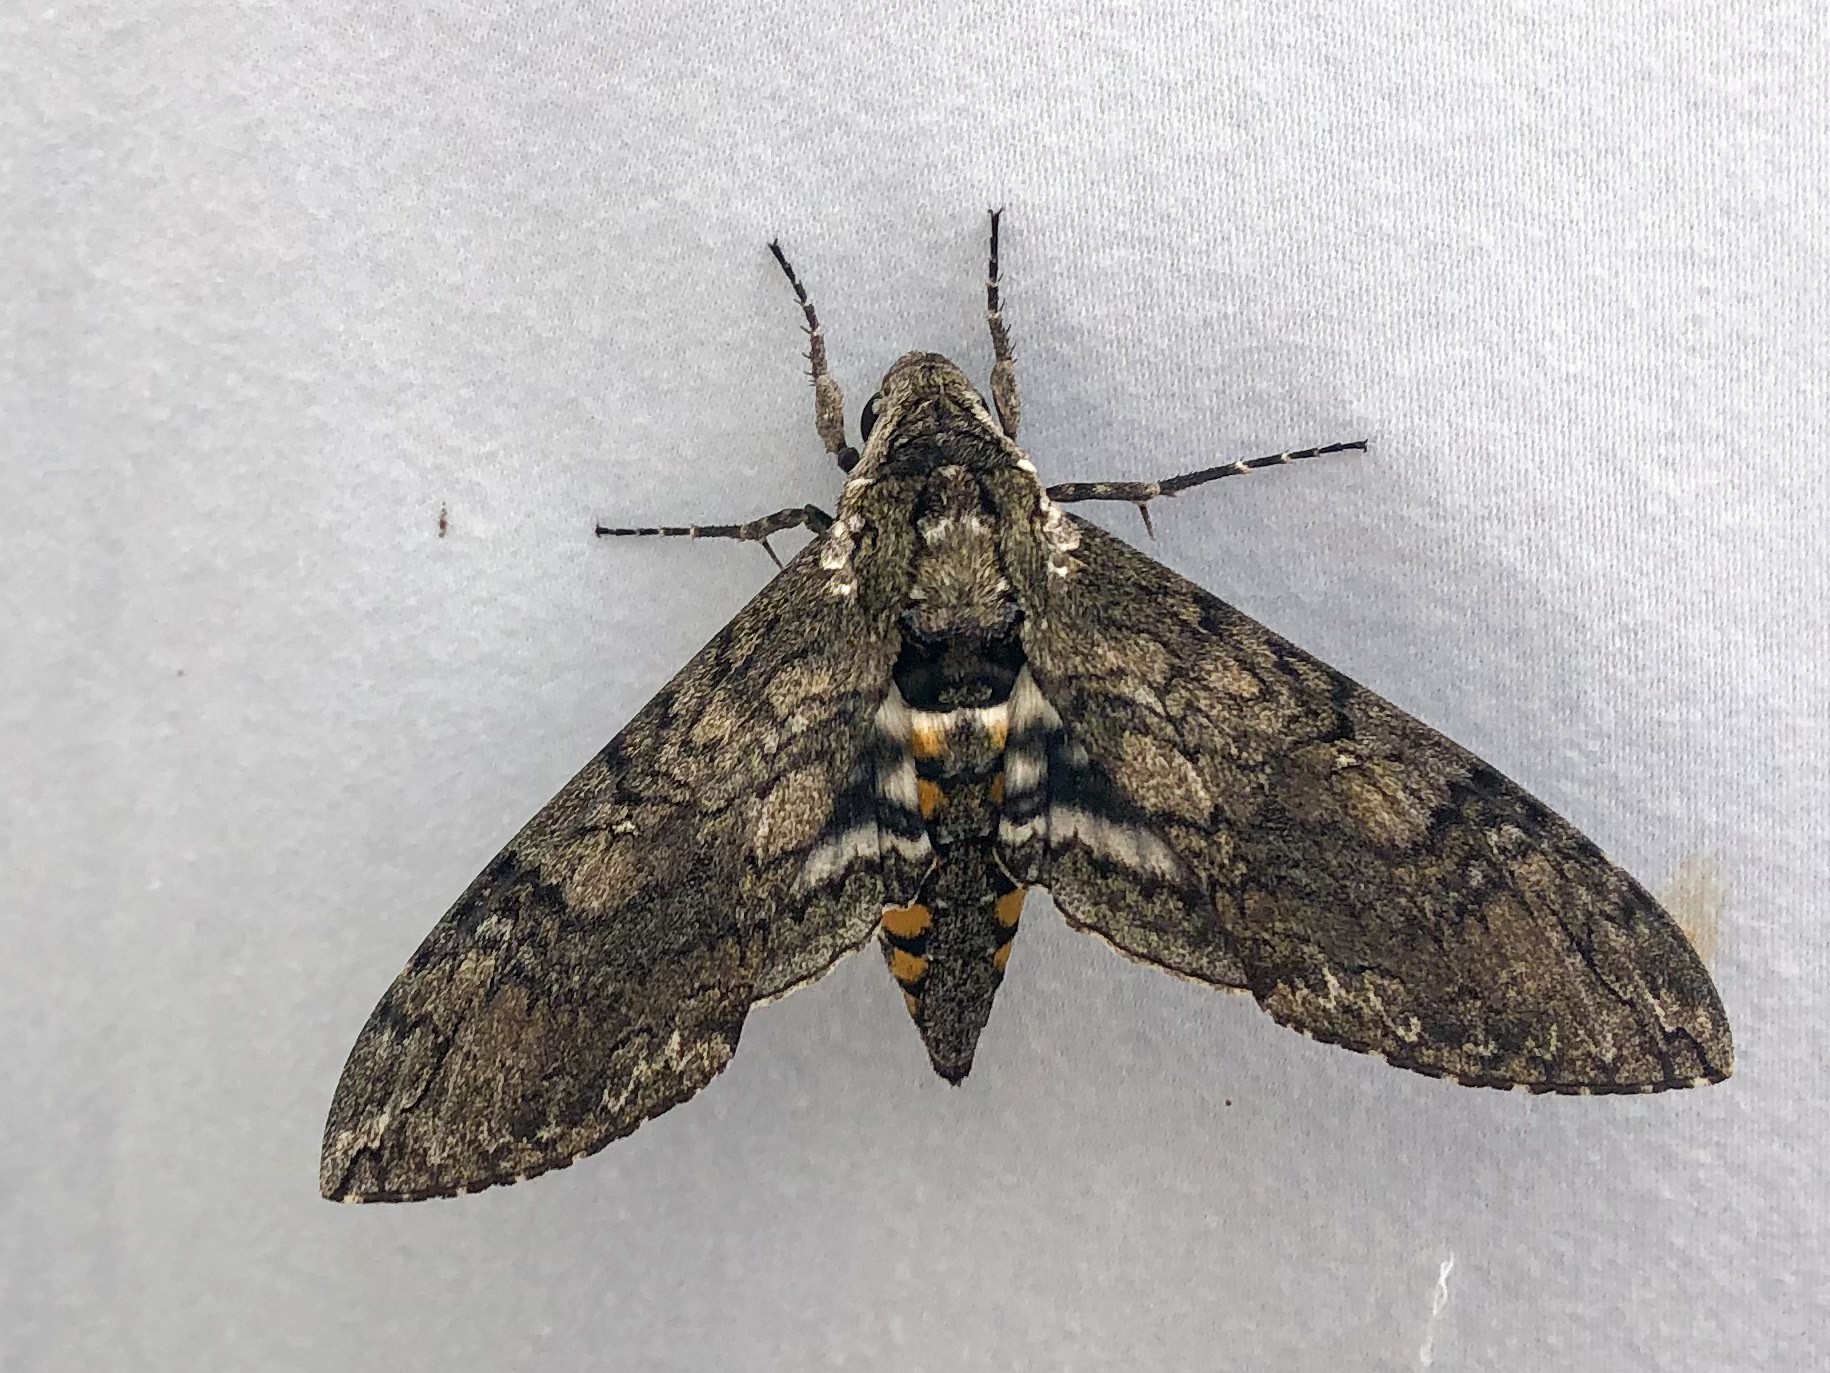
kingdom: Animalia
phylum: Arthropoda
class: Insecta
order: Lepidoptera
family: Sphingidae
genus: Manduca
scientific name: Manduca sexta
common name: Carolina sphinx
